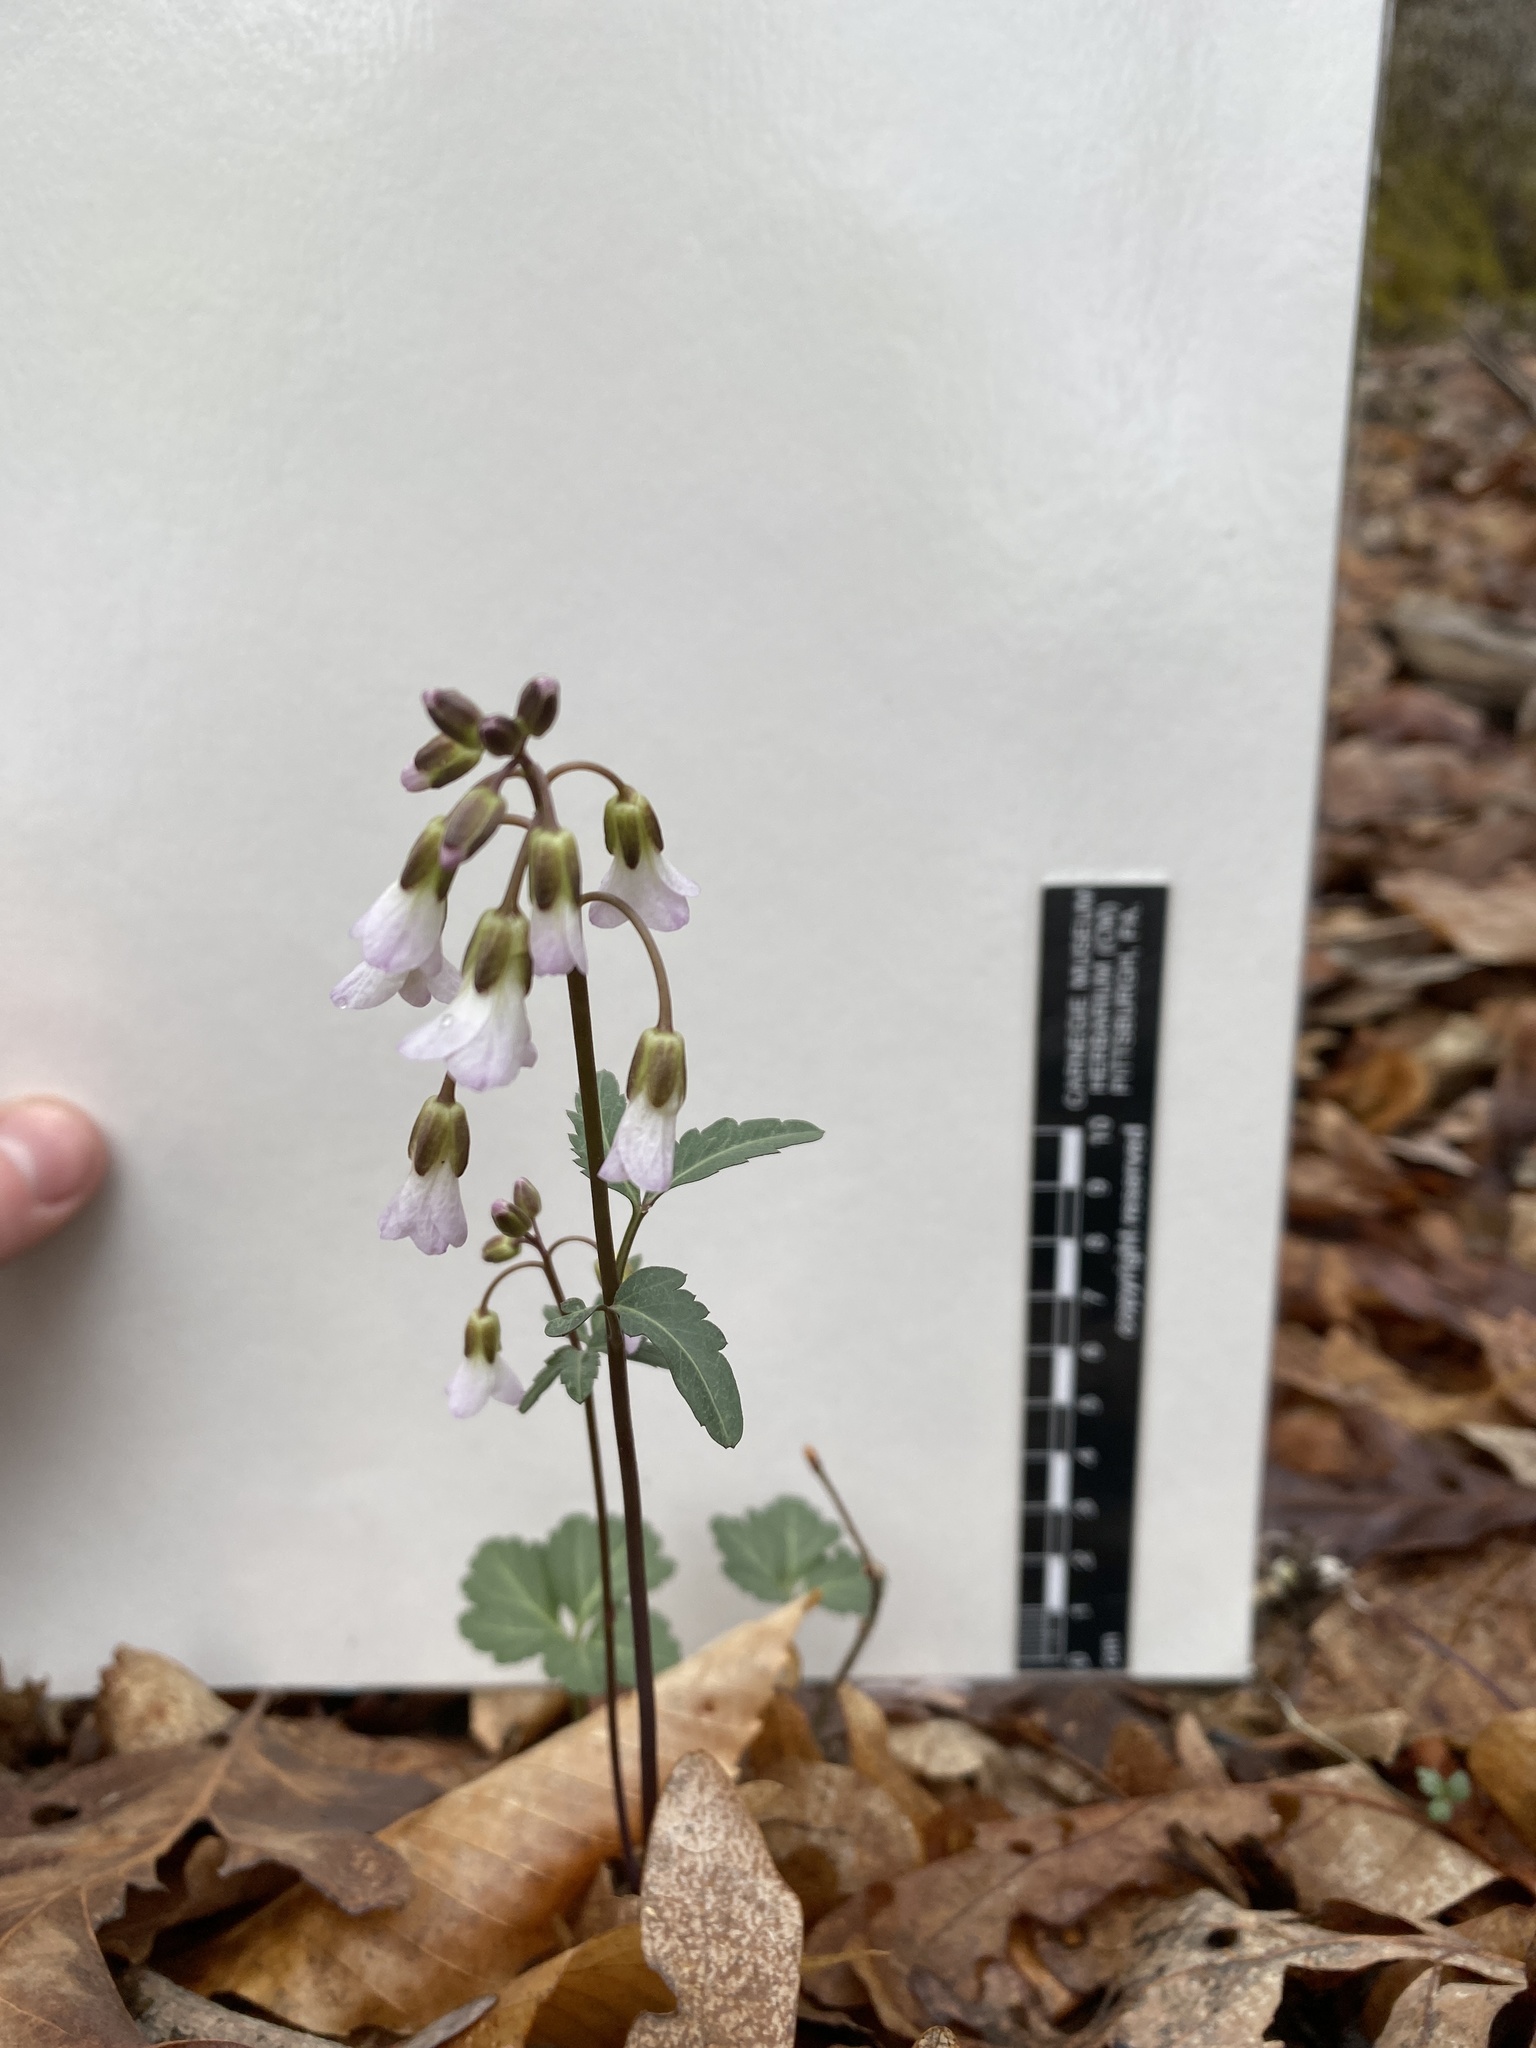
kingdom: Plantae
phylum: Tracheophyta
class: Magnoliopsida
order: Brassicales
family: Brassicaceae
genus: Cardamine
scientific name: Cardamine angustata
